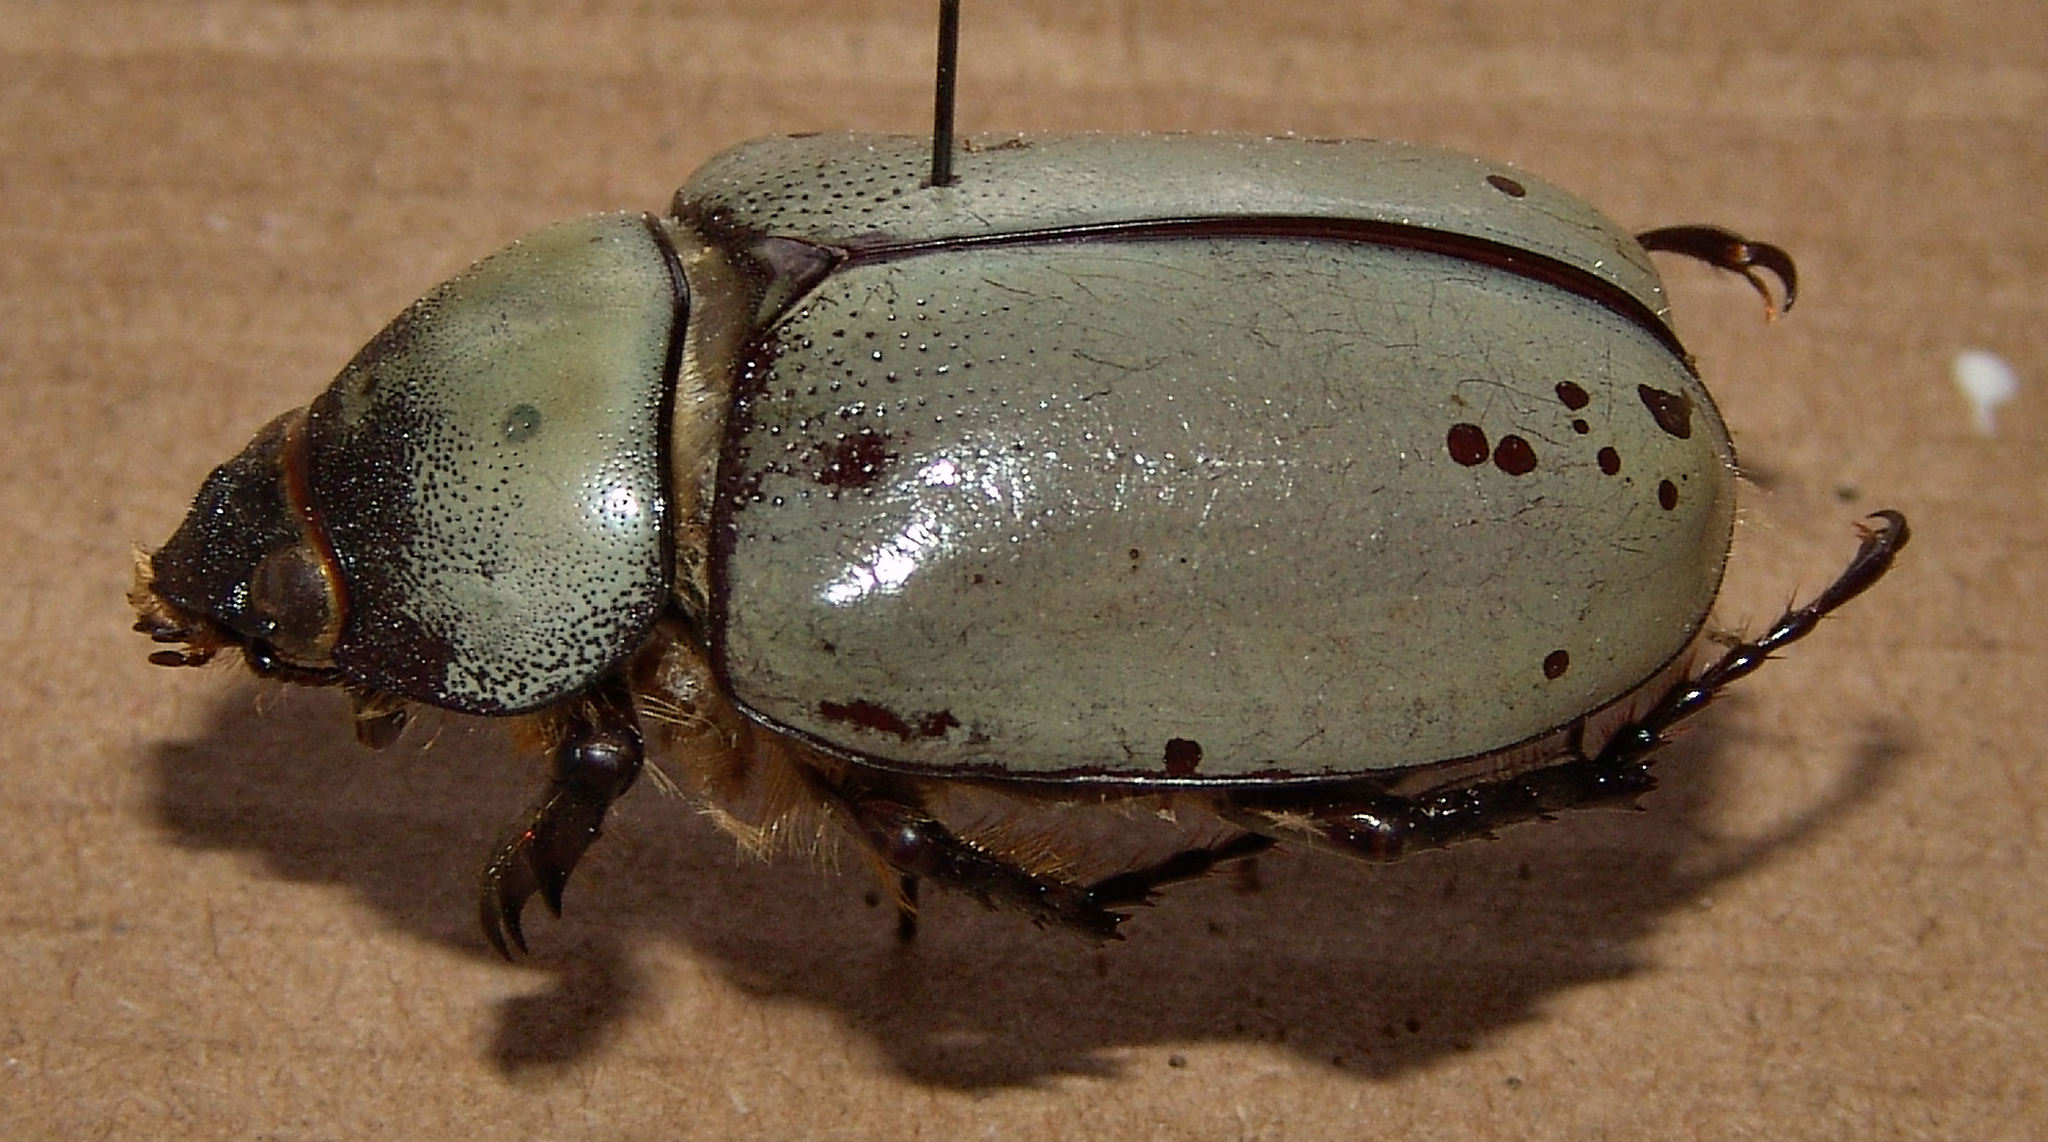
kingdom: Animalia
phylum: Arthropoda
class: Insecta
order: Coleoptera
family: Scarabaeidae
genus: Dynastes
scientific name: Dynastes grantii
